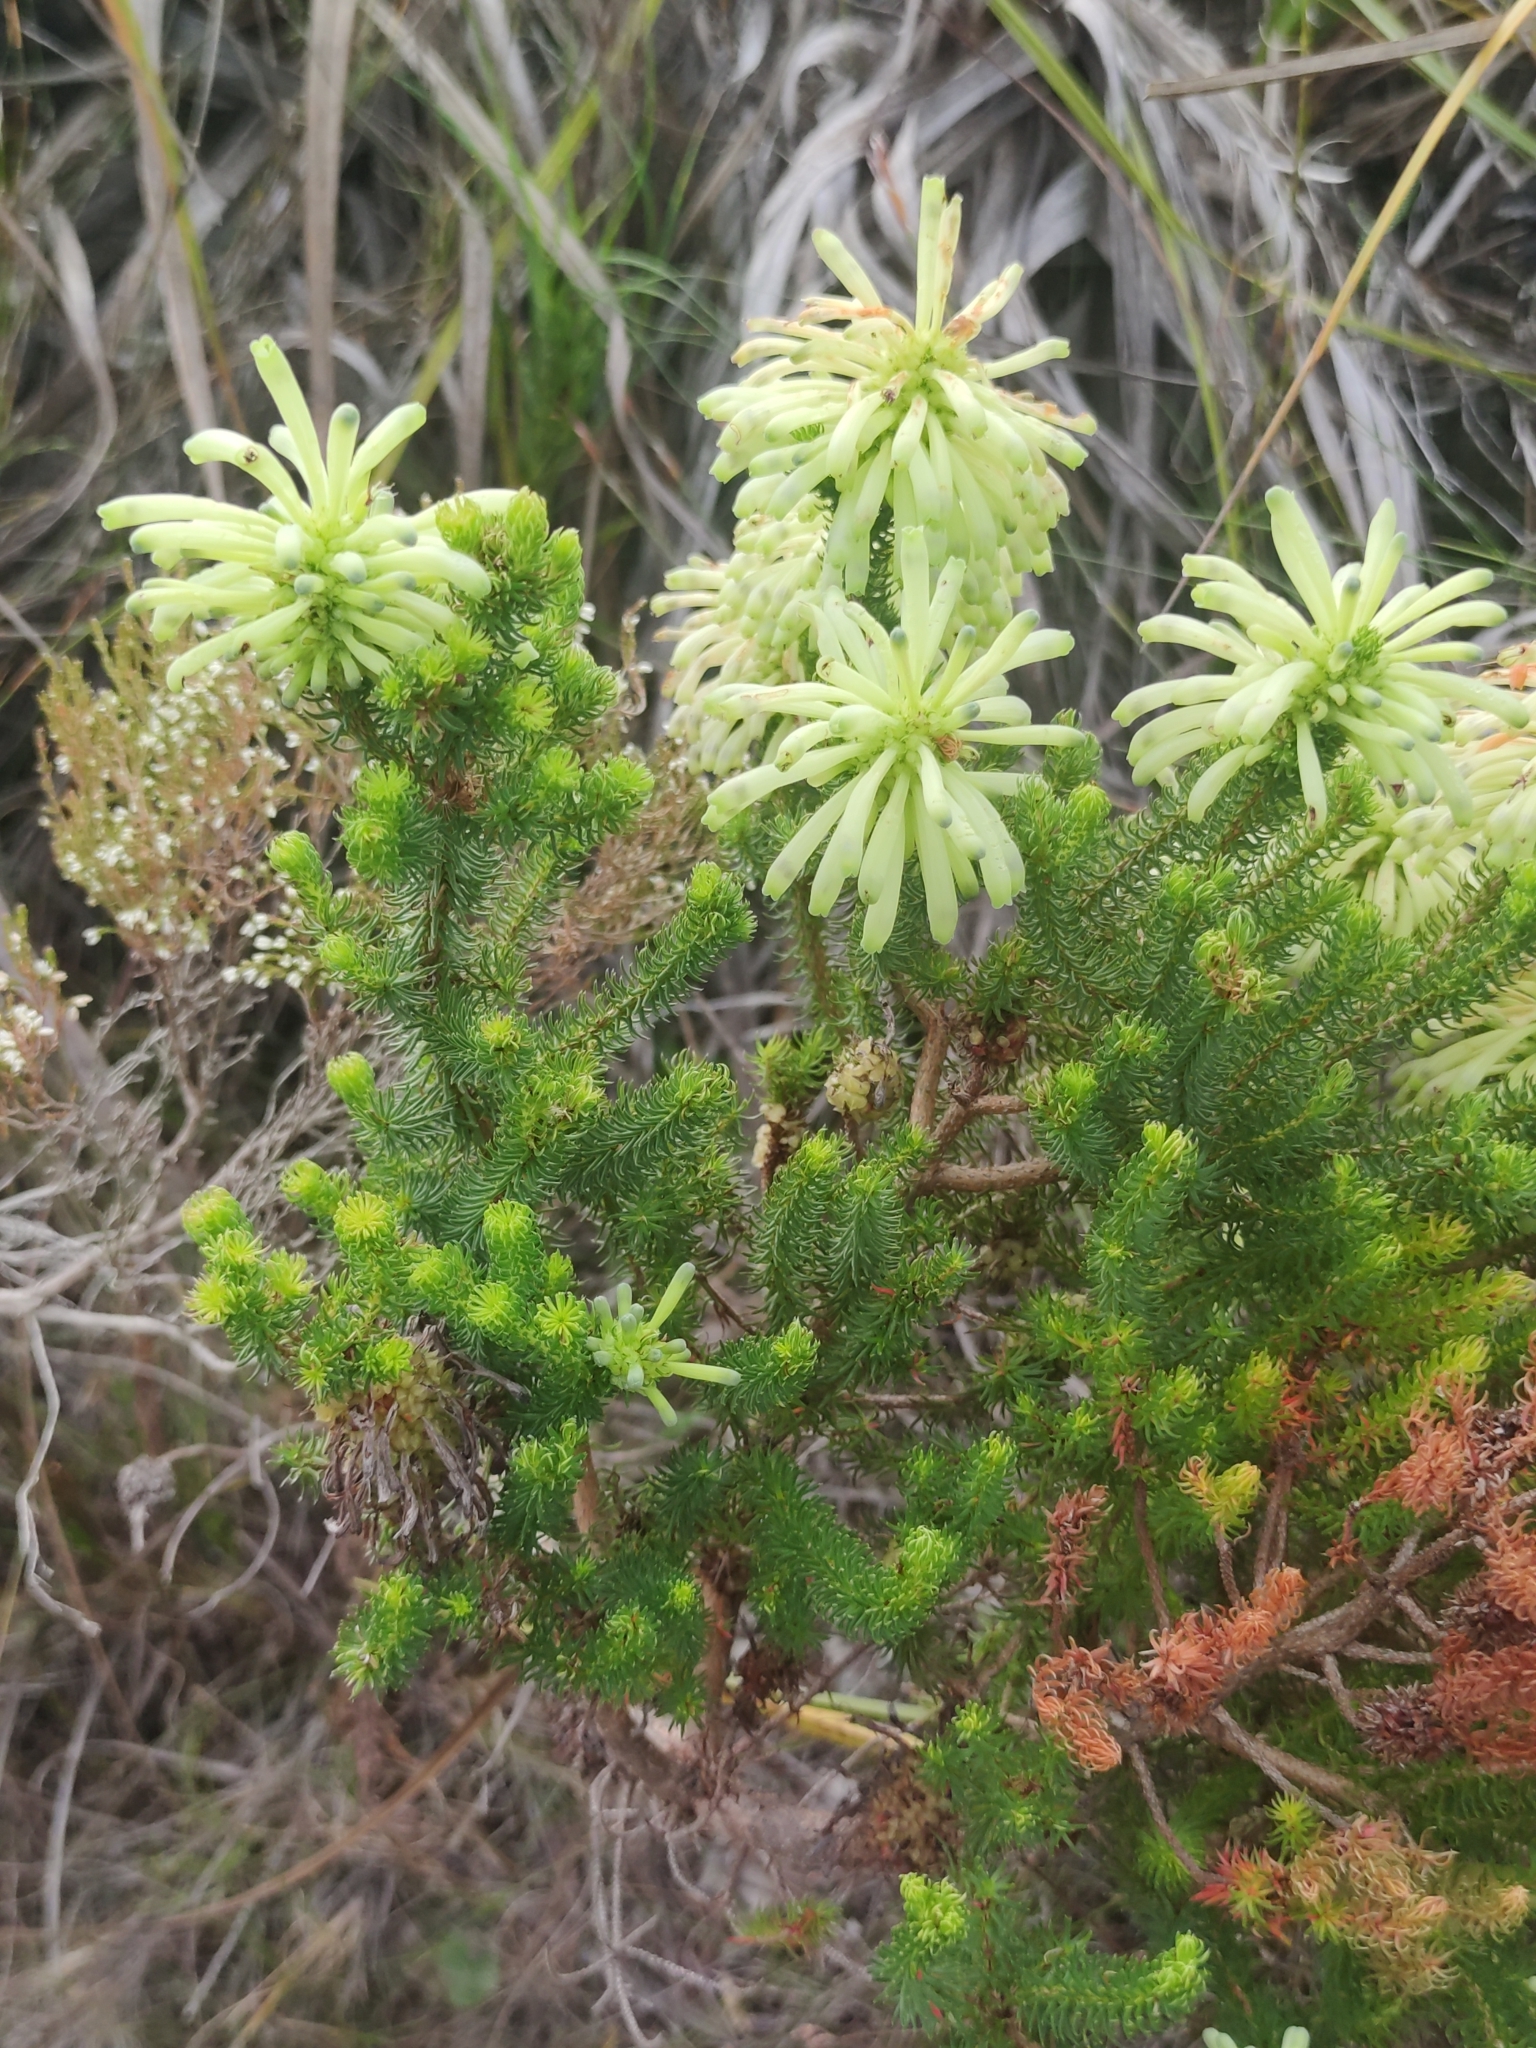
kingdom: Plantae
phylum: Tracheophyta
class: Magnoliopsida
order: Ericales
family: Ericaceae
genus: Erica
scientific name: Erica sessiliflora
